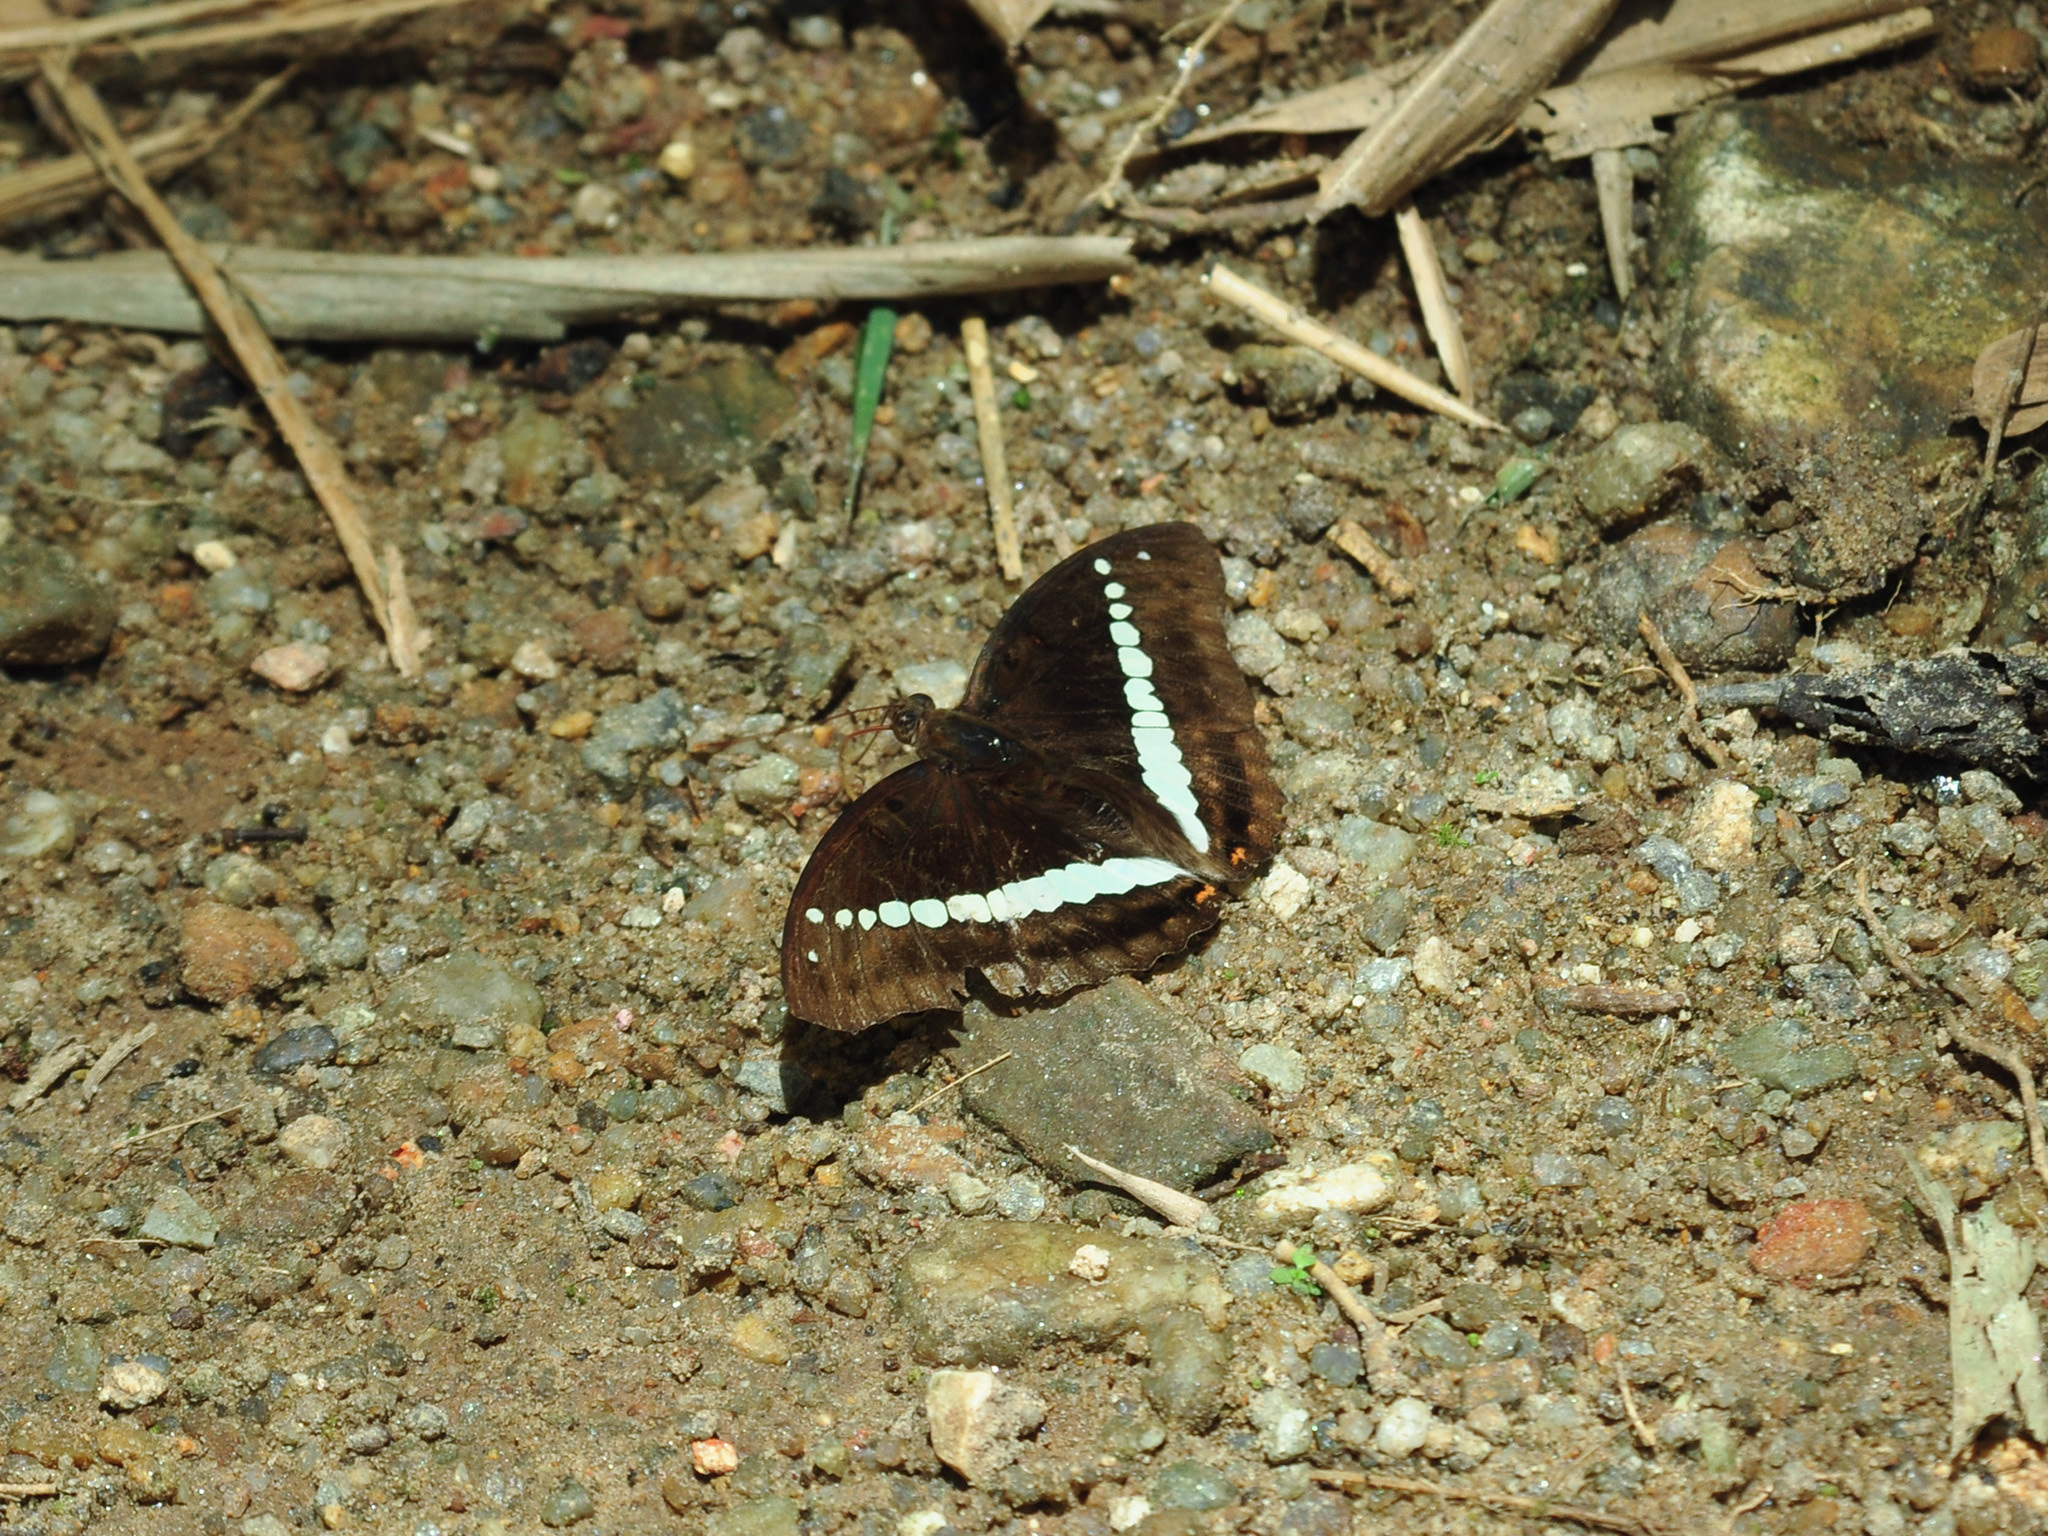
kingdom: Animalia
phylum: Arthropoda
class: Insecta
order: Lepidoptera
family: Nymphalidae
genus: Euthalia
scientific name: Euthalia recta
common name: Redtail marquis
